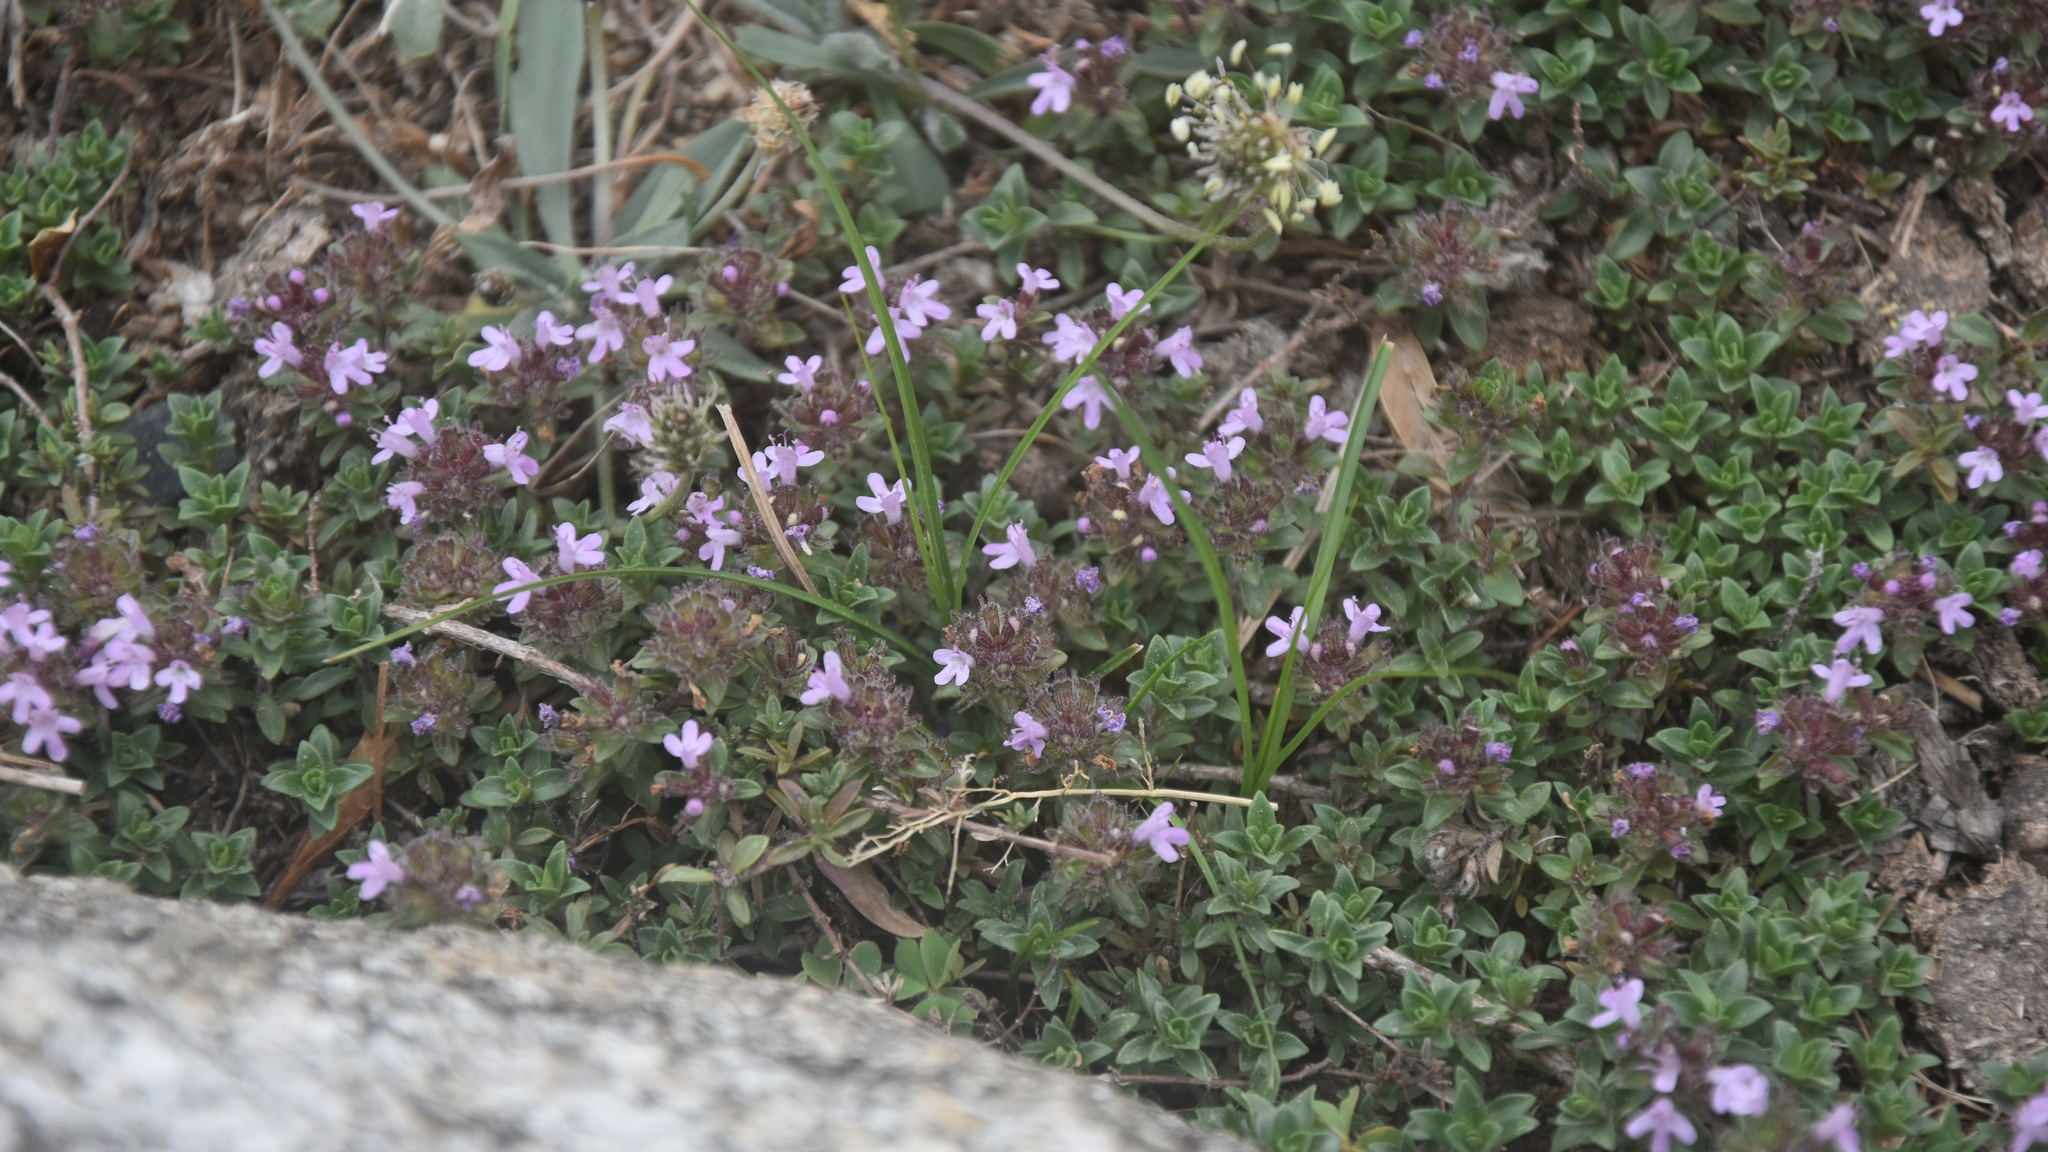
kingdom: Plantae
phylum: Tracheophyta
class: Magnoliopsida
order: Lamiales
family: Lamiaceae
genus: Thymus
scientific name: Thymus linearis
